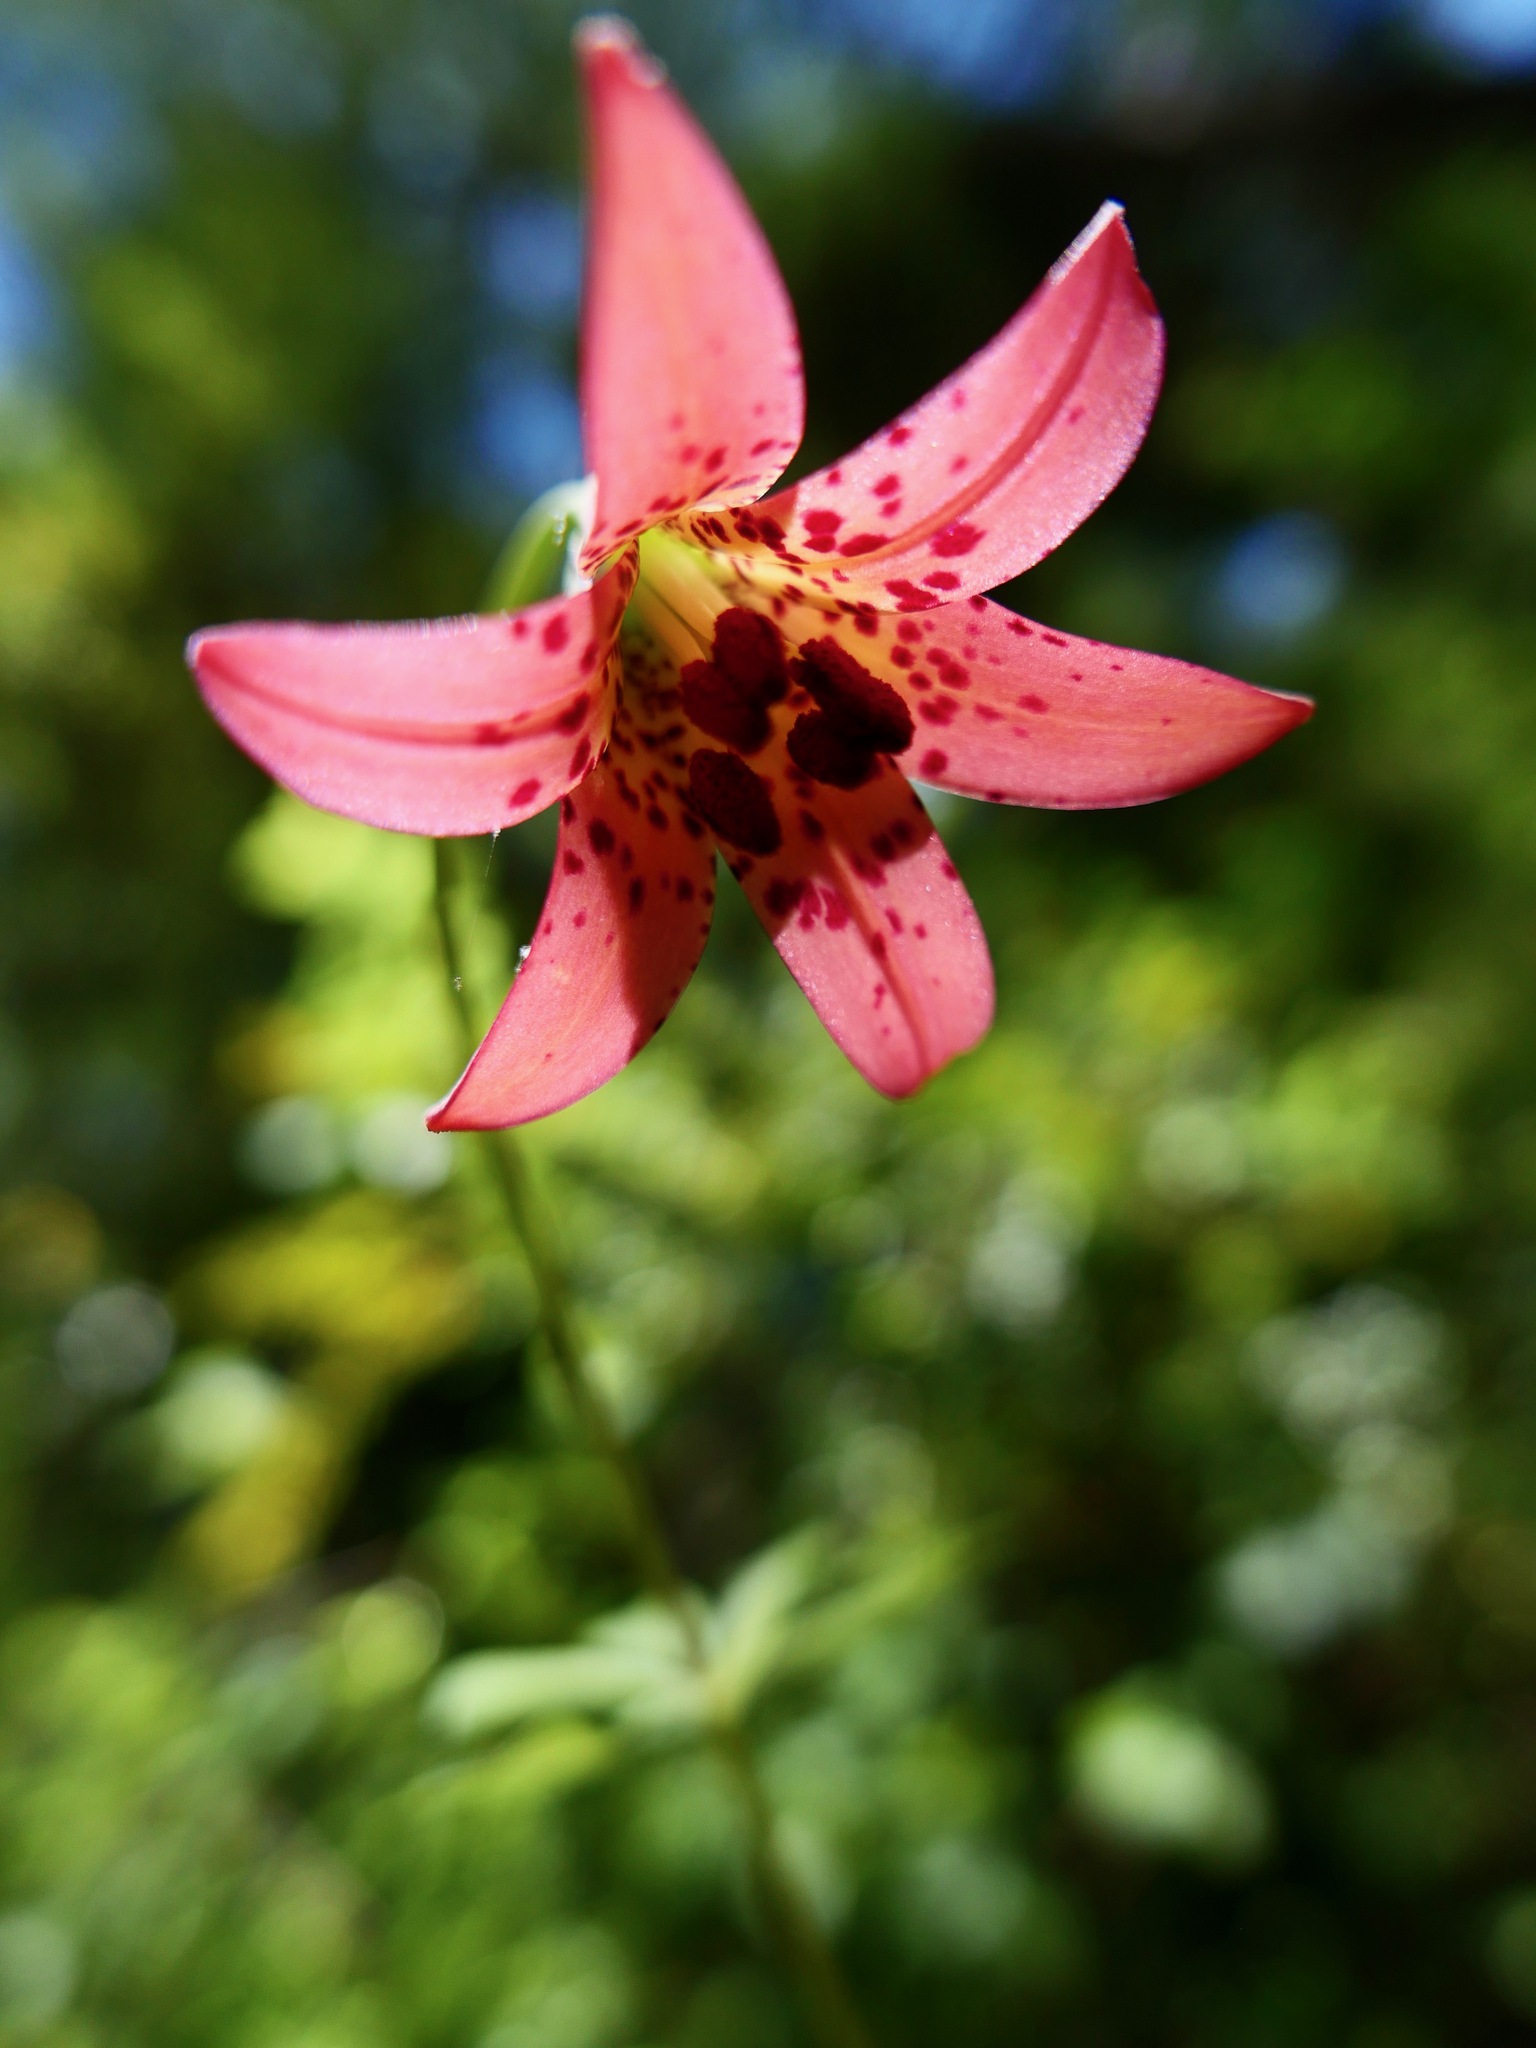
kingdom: Plantae
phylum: Tracheophyta
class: Liliopsida
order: Liliales
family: Liliaceae
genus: Lilium
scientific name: Lilium bolanderi
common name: Bolander's lily
